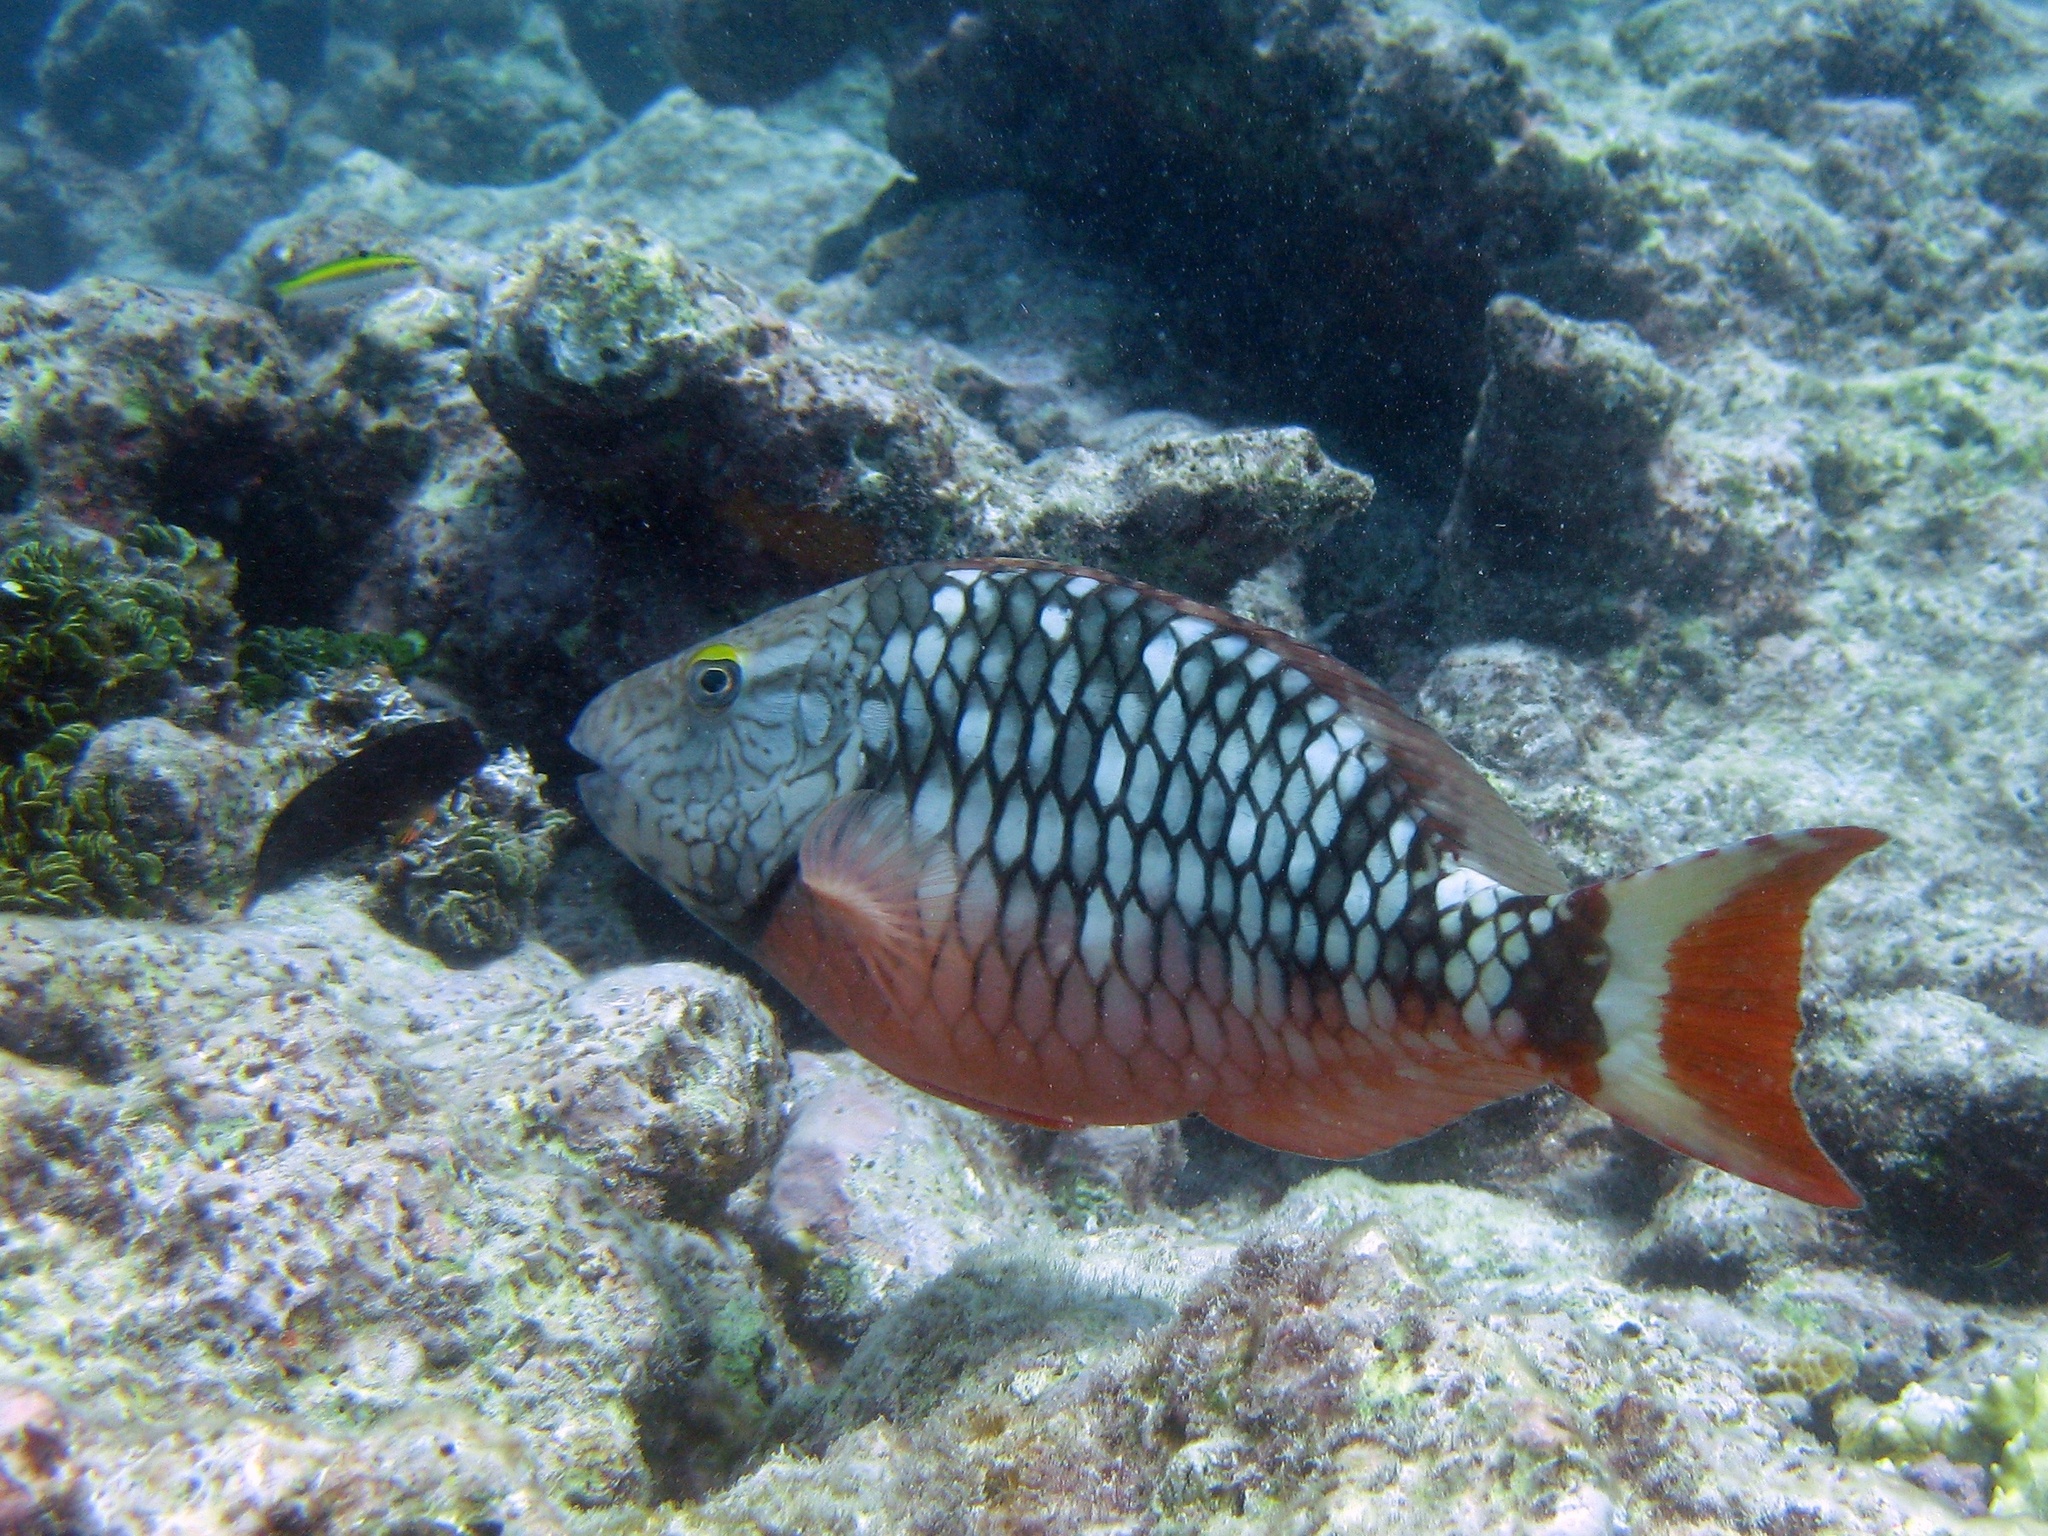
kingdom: Animalia
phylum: Chordata
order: Perciformes
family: Scaridae
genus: Sparisoma
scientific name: Sparisoma viride
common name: Stoplight parrotfish
